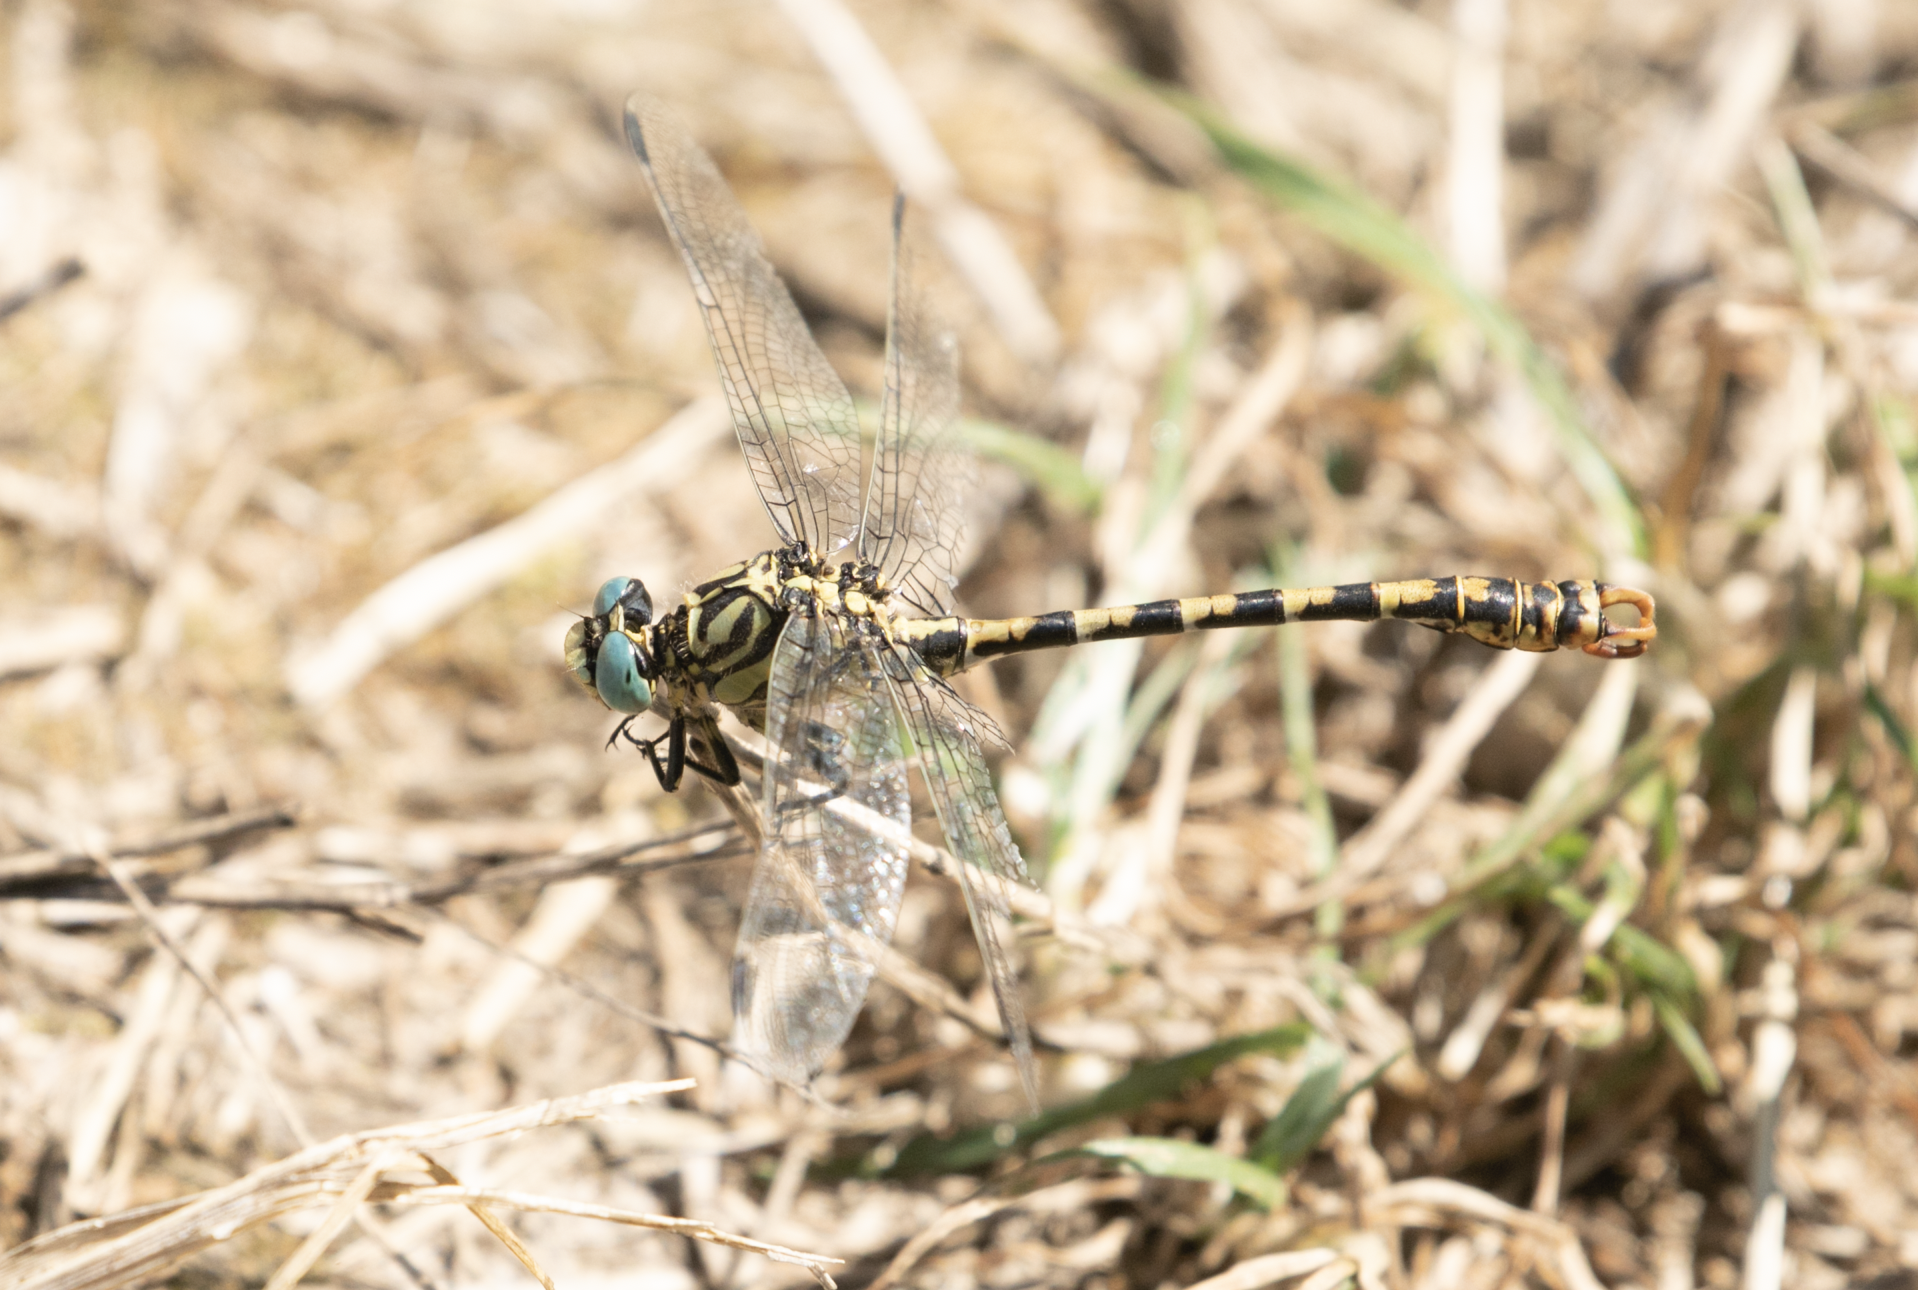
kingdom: Animalia
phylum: Arthropoda
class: Insecta
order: Odonata
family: Gomphidae
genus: Onychogomphus
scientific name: Onychogomphus forcipatus
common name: Small pincertail
